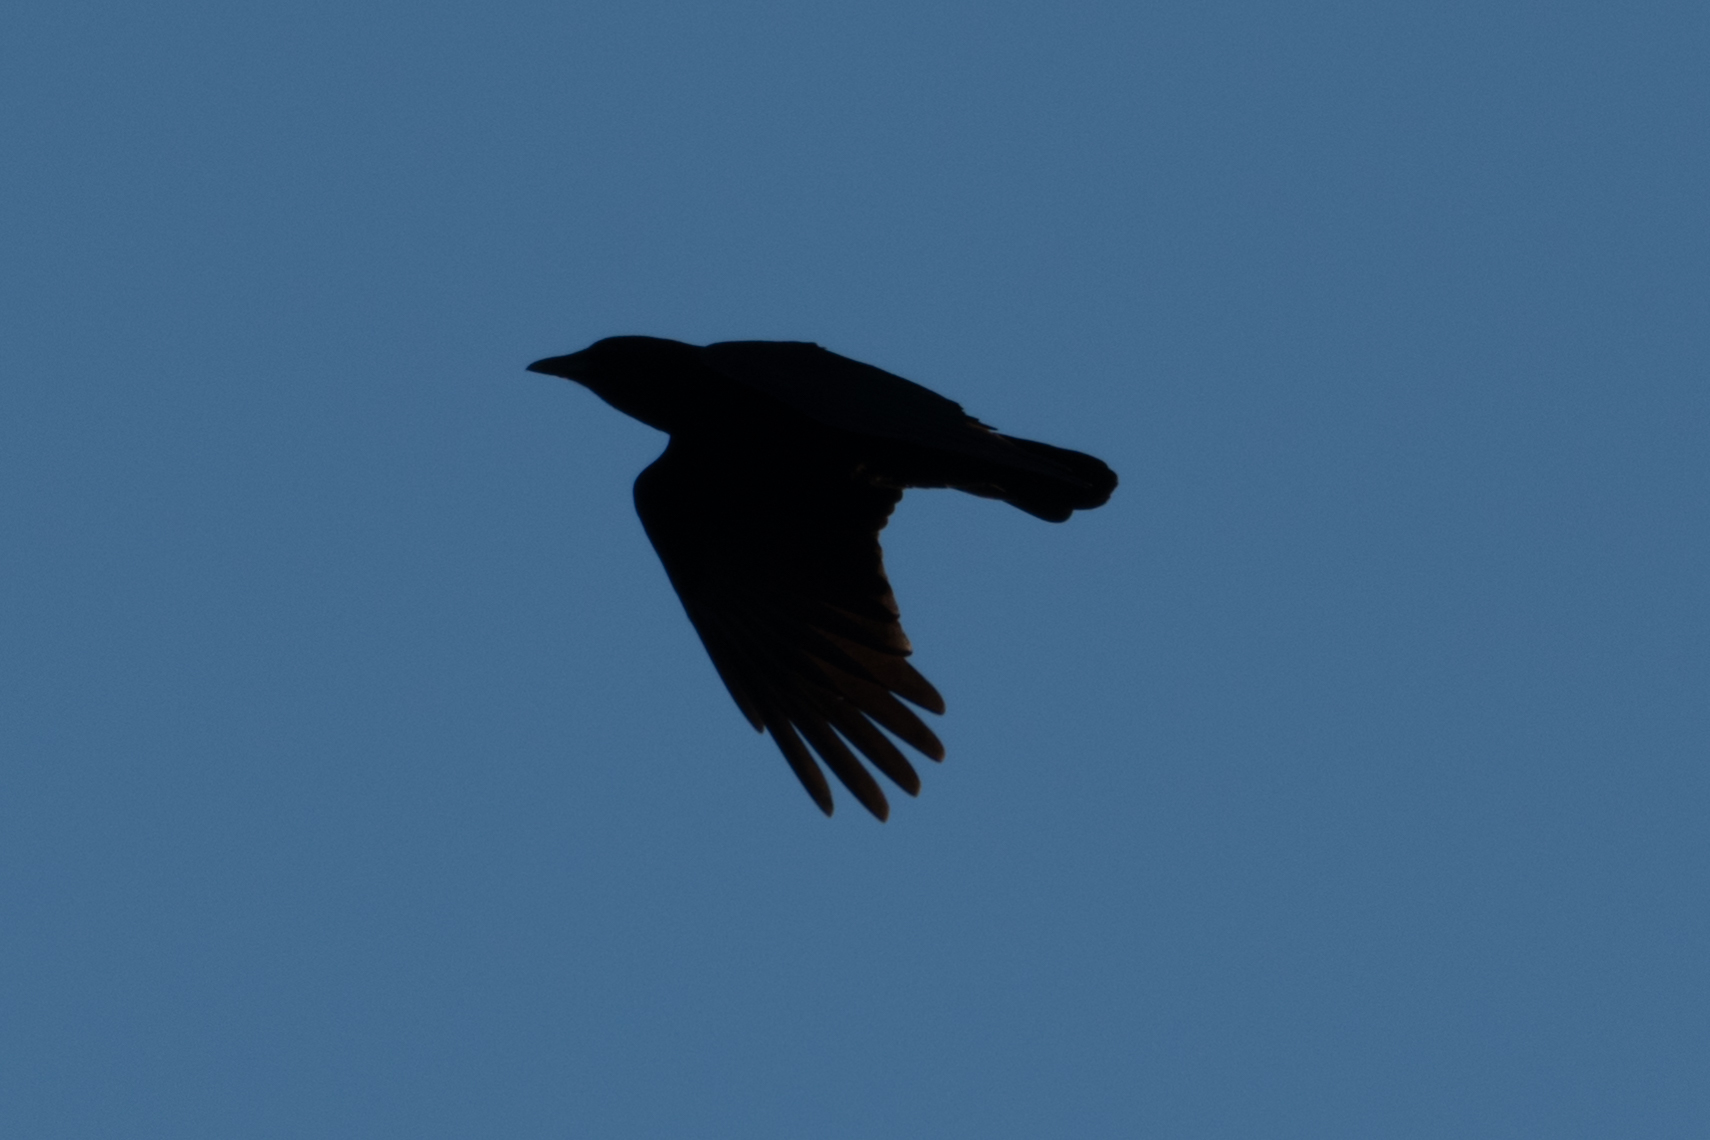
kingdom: Animalia
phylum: Chordata
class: Aves
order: Passeriformes
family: Corvidae
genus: Corvus
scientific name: Corvus brachyrhynchos
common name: American crow
